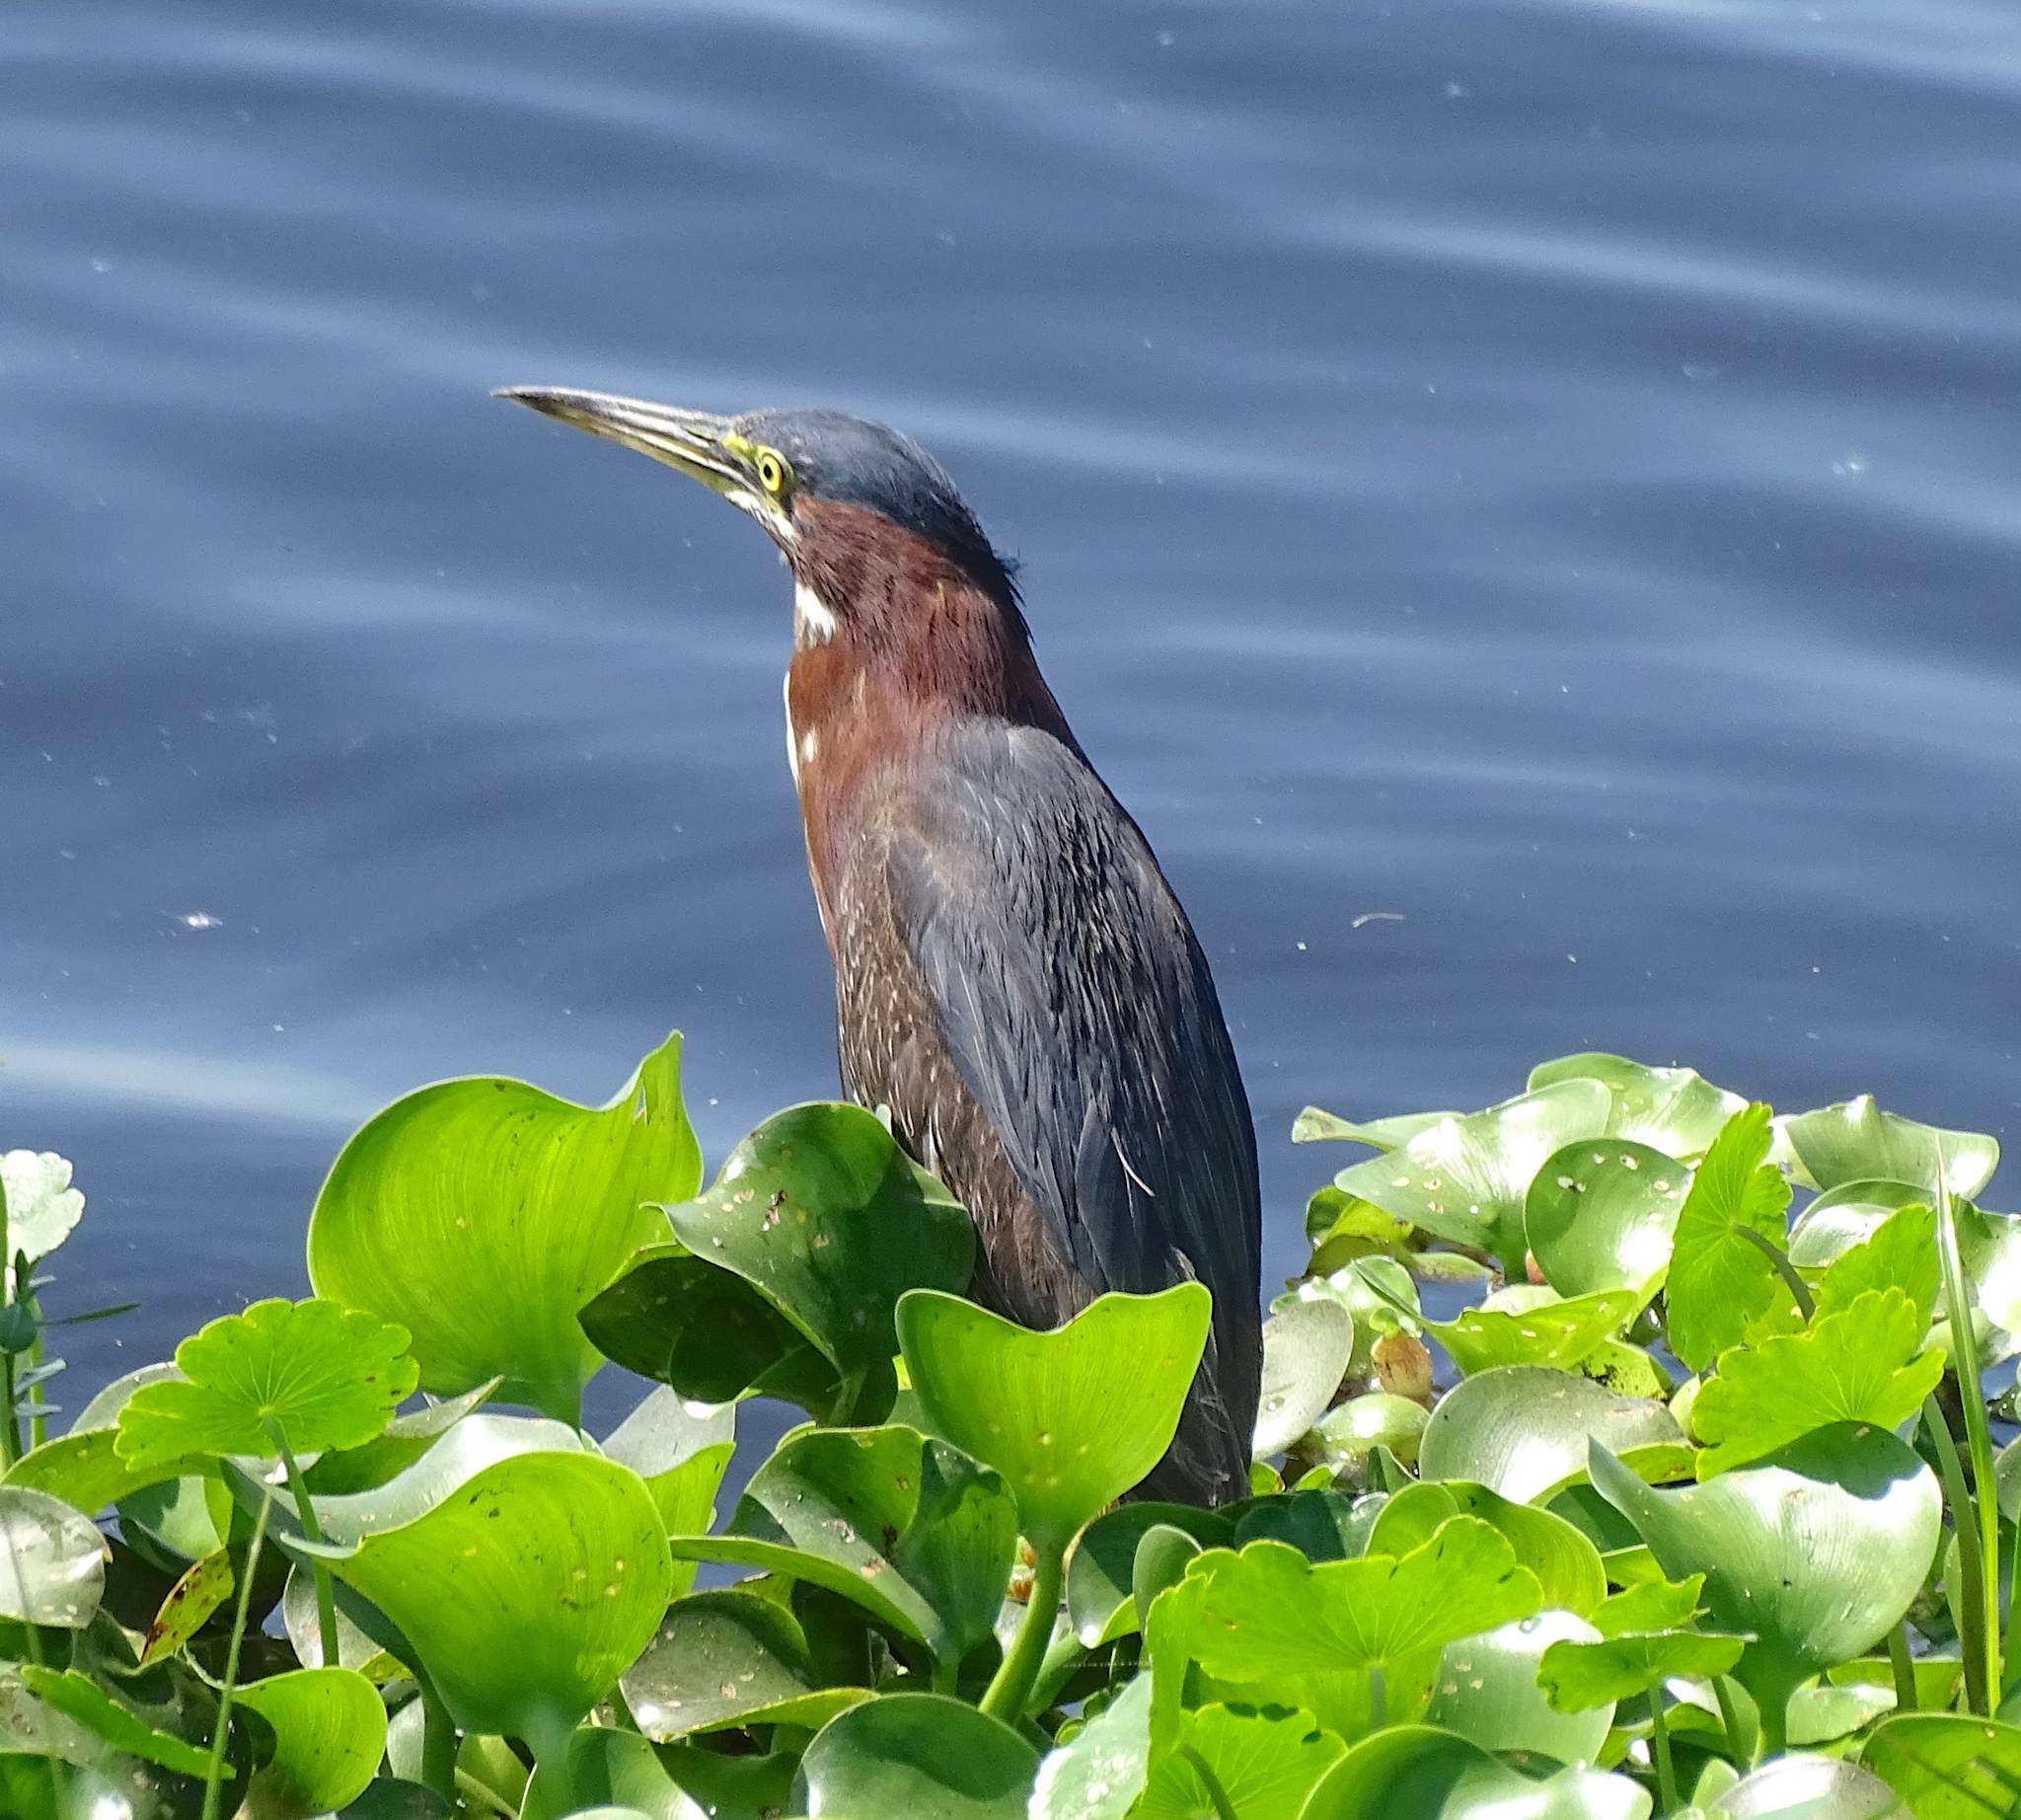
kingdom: Animalia
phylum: Chordata
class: Aves
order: Pelecaniformes
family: Ardeidae
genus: Butorides
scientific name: Butorides virescens
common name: Green heron
